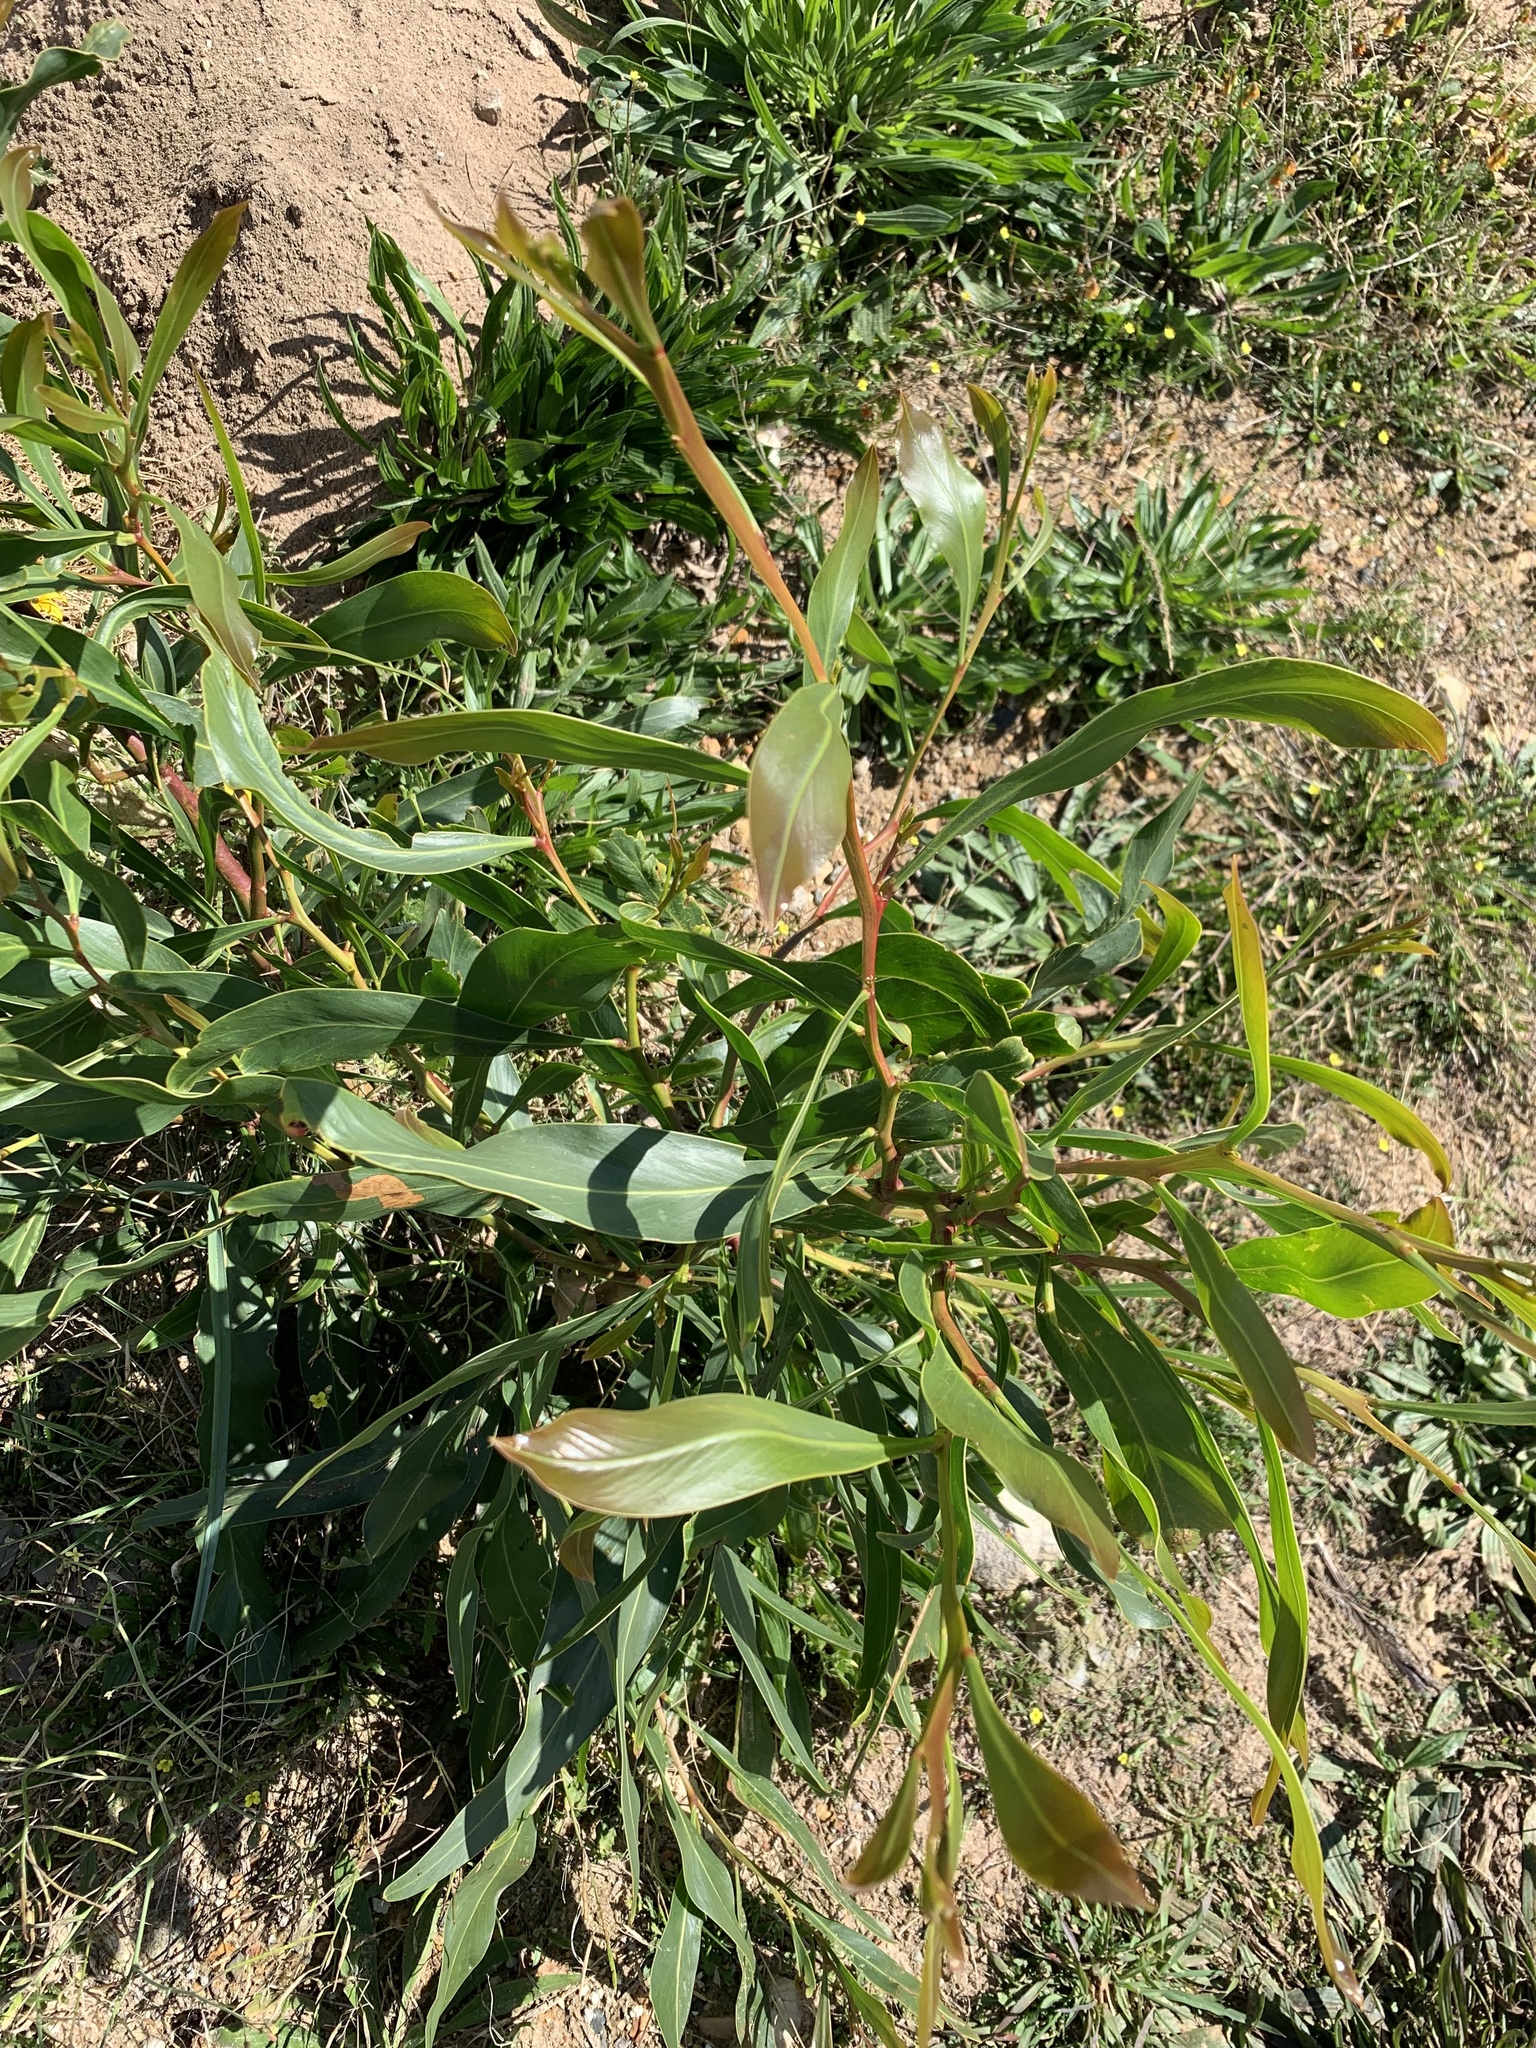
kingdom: Plantae
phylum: Tracheophyta
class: Magnoliopsida
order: Fabales
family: Fabaceae
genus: Acacia
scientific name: Acacia saligna
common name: Orange wattle
